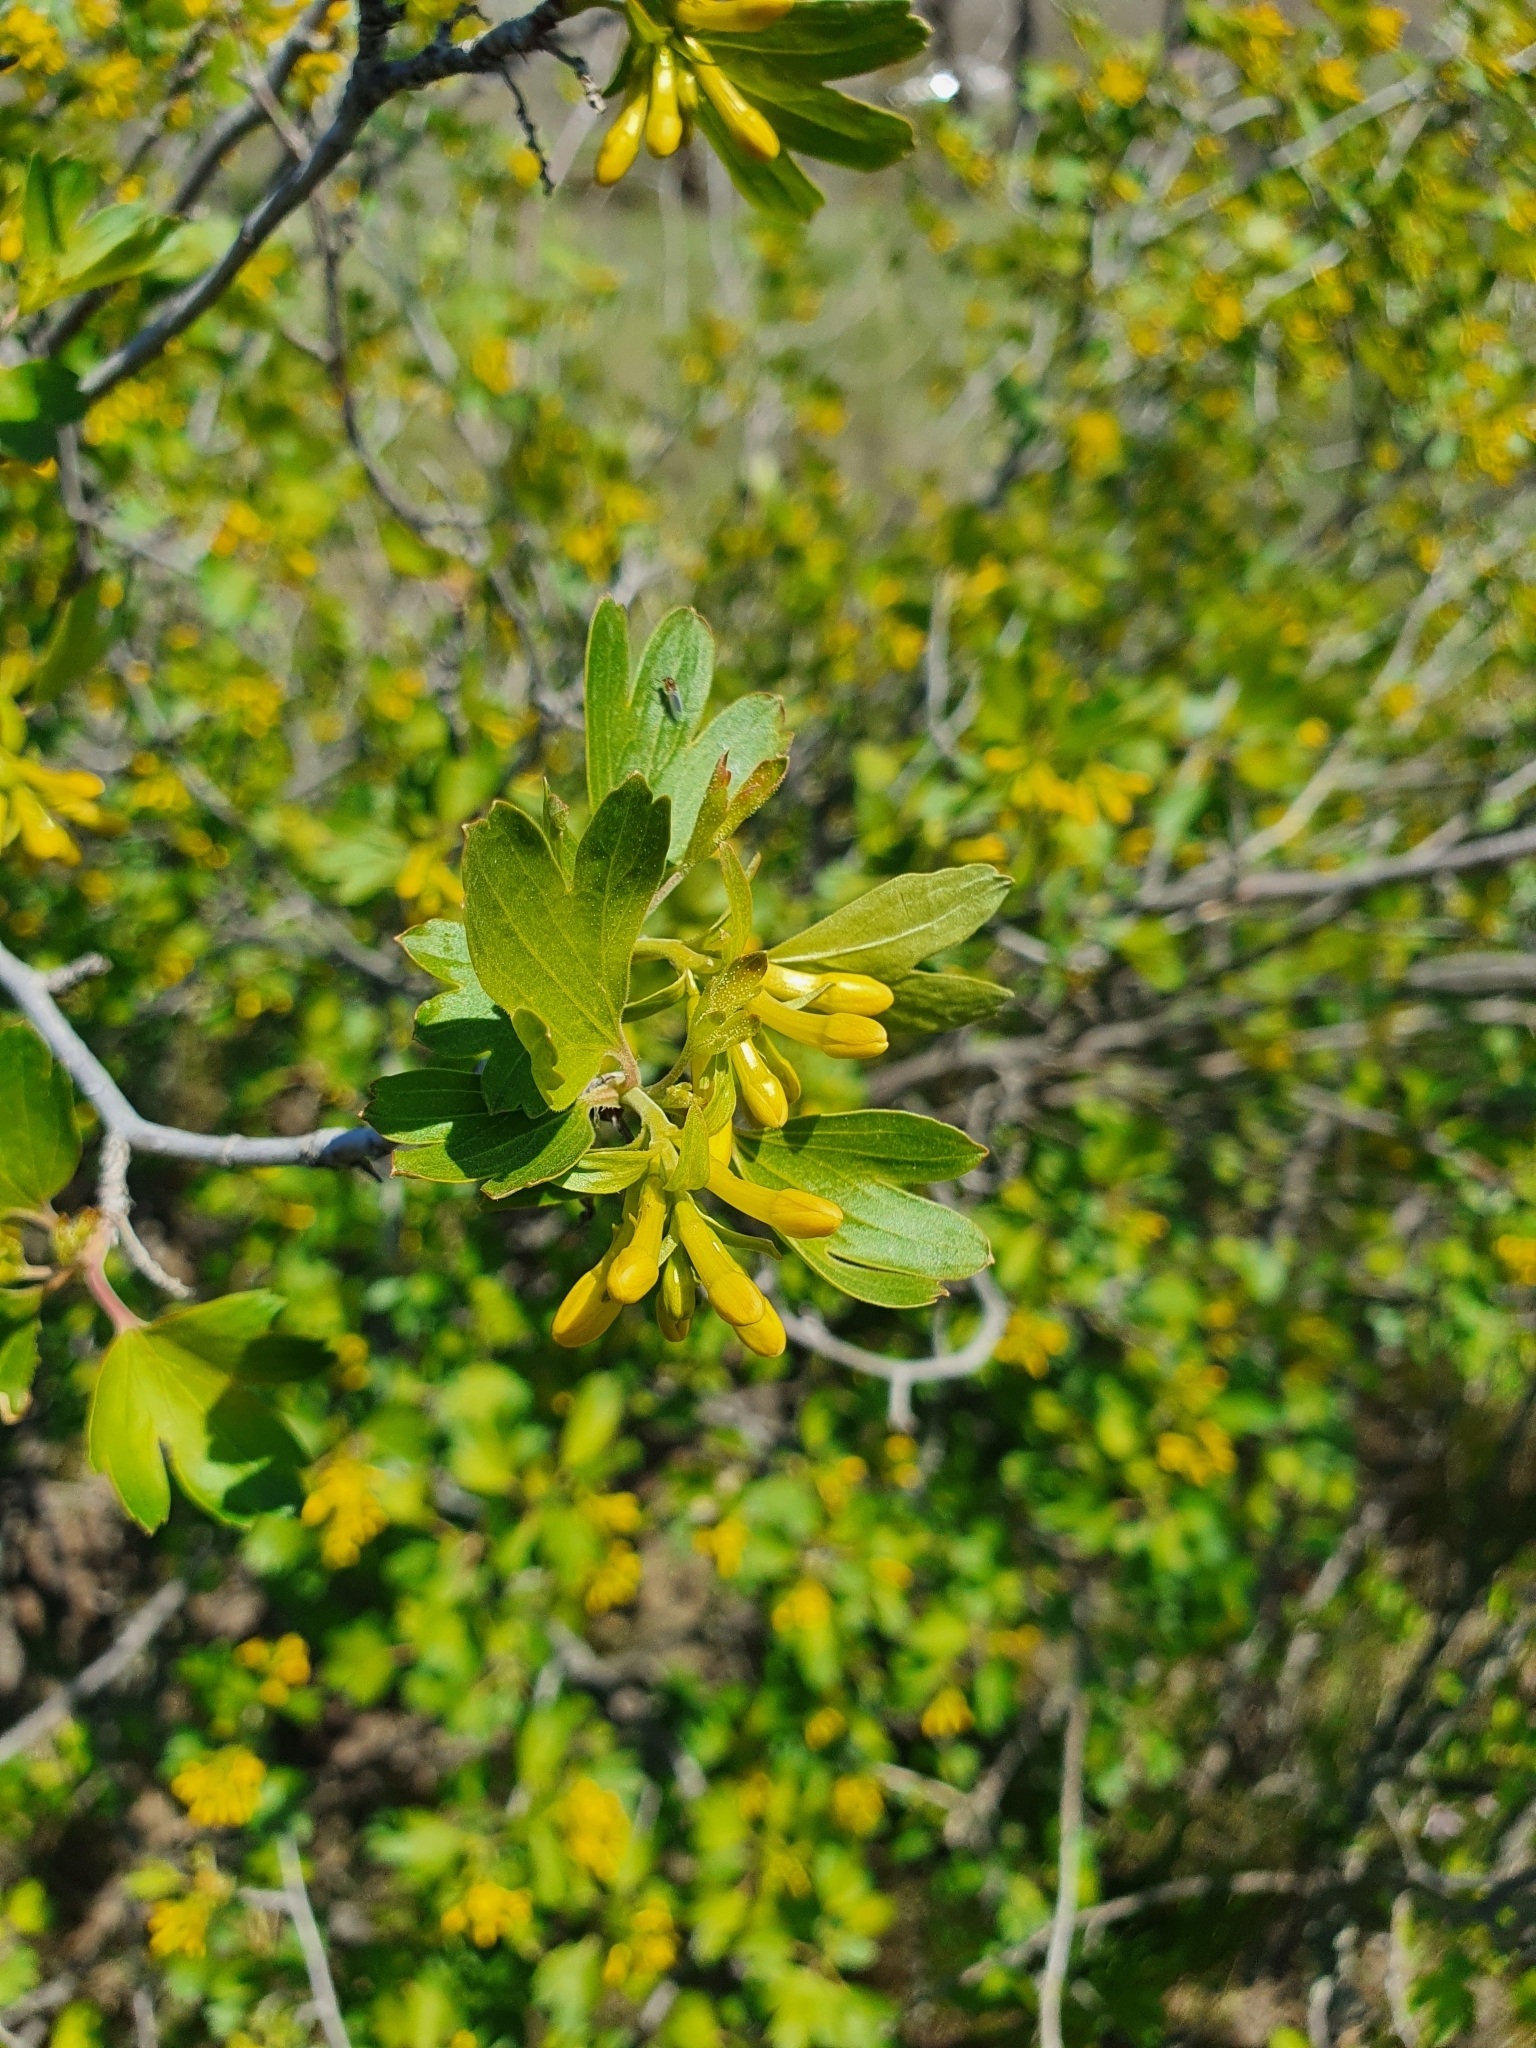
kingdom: Plantae
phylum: Tracheophyta
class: Magnoliopsida
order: Saxifragales
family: Grossulariaceae
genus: Ribes
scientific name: Ribes aureum
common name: Golden currant
